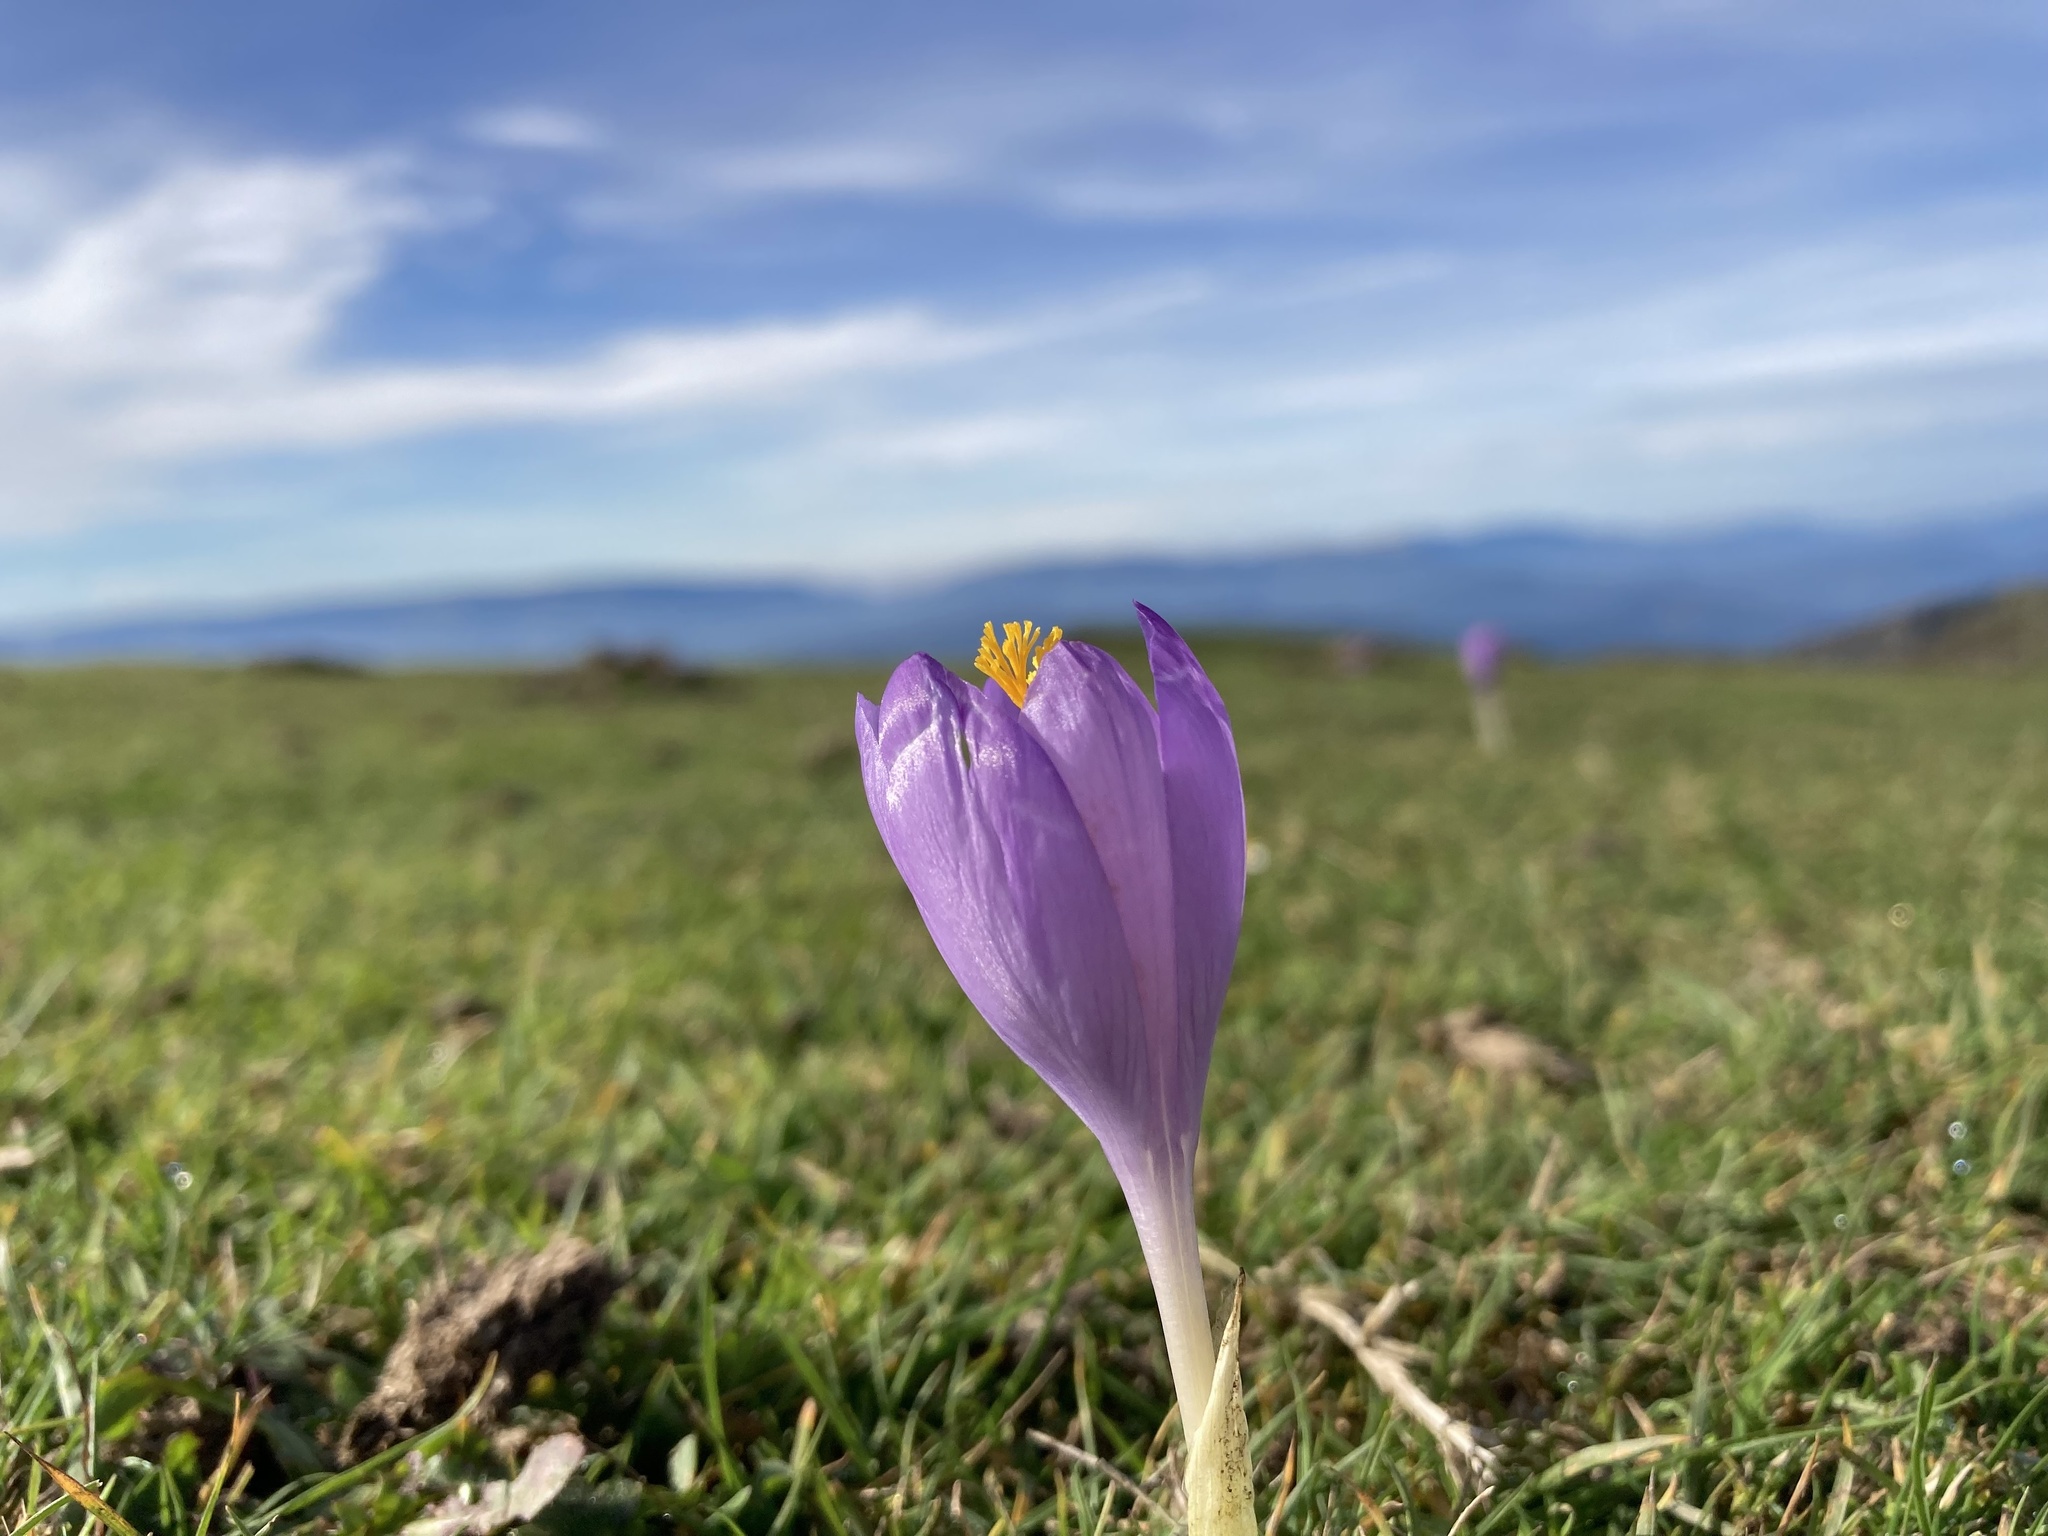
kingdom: Plantae
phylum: Tracheophyta
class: Liliopsida
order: Asparagales
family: Iridaceae
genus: Crocus
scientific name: Crocus nudiflorus
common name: Autumn crocus
